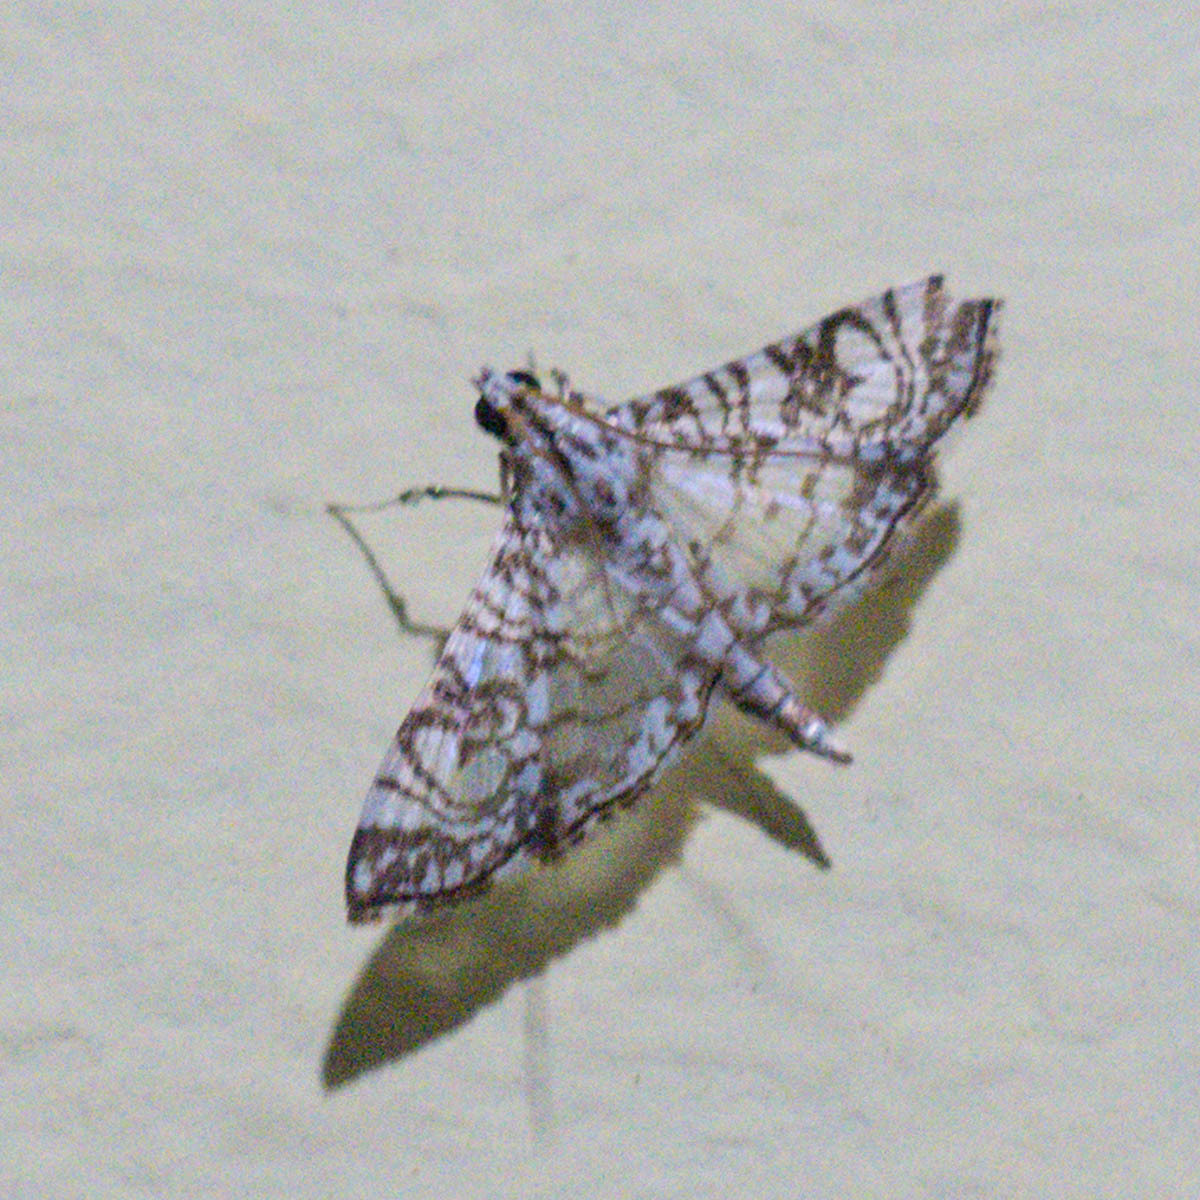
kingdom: Animalia
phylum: Arthropoda
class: Insecta
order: Lepidoptera
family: Crambidae
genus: Glyphodes
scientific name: Glyphodes onychinalis
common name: Swan plant moth
